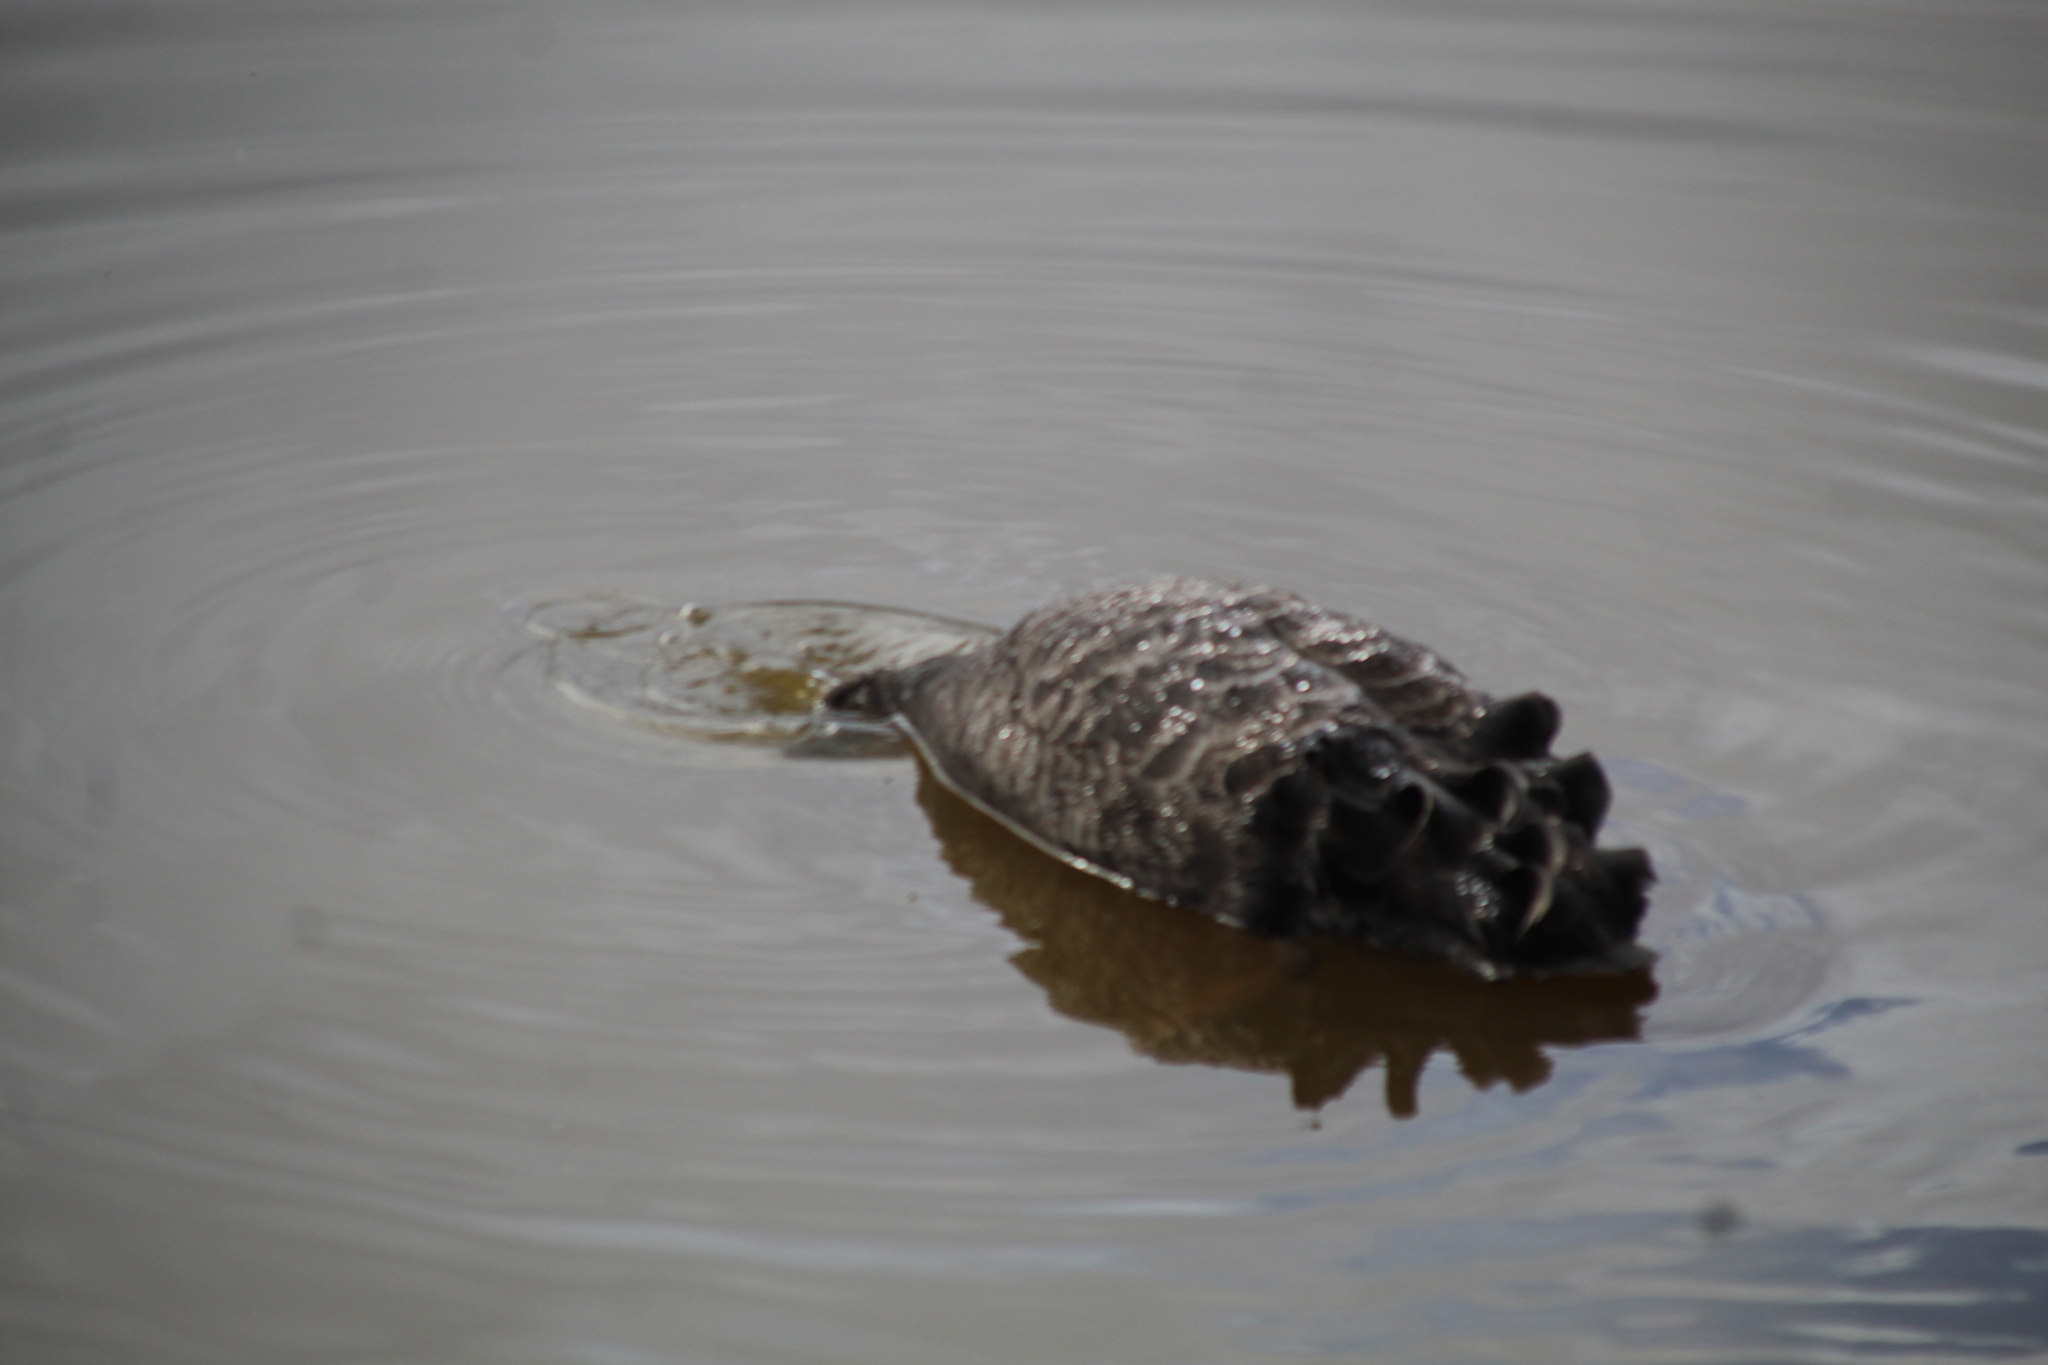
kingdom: Animalia
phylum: Chordata
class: Aves
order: Anseriformes
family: Anatidae
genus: Cygnus
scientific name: Cygnus atratus
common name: Black swan
